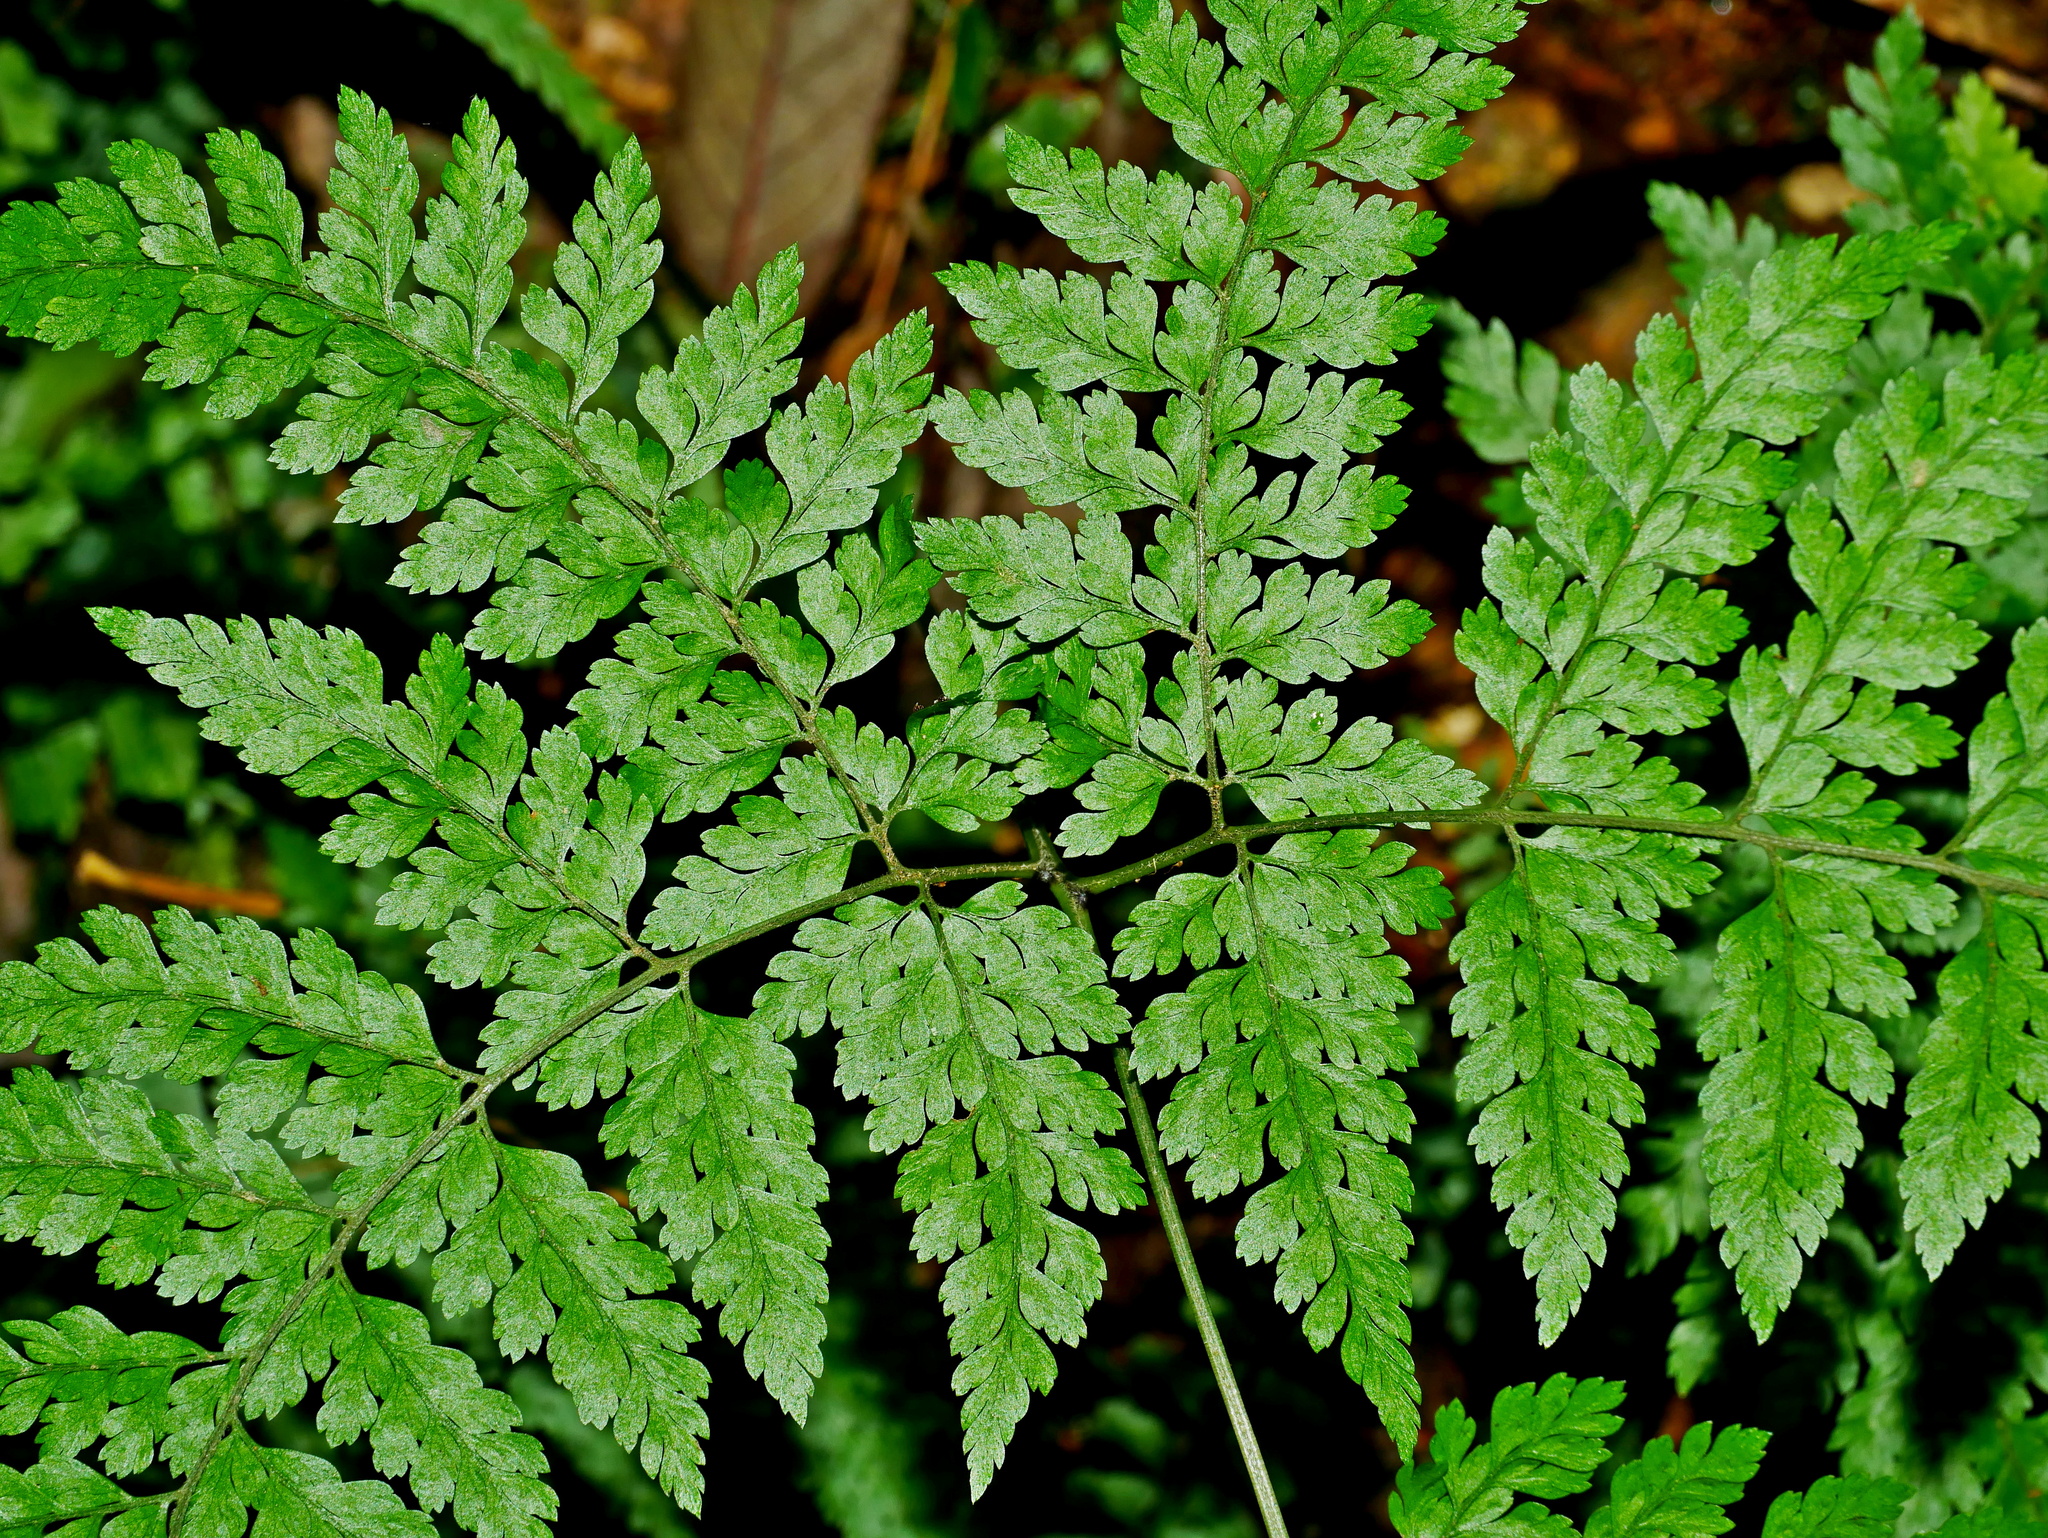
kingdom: Plantae
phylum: Tracheophyta
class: Polypodiopsida
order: Polypodiales
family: Dryopteridaceae
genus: Arachniodes
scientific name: Arachniodes quadripinnata
